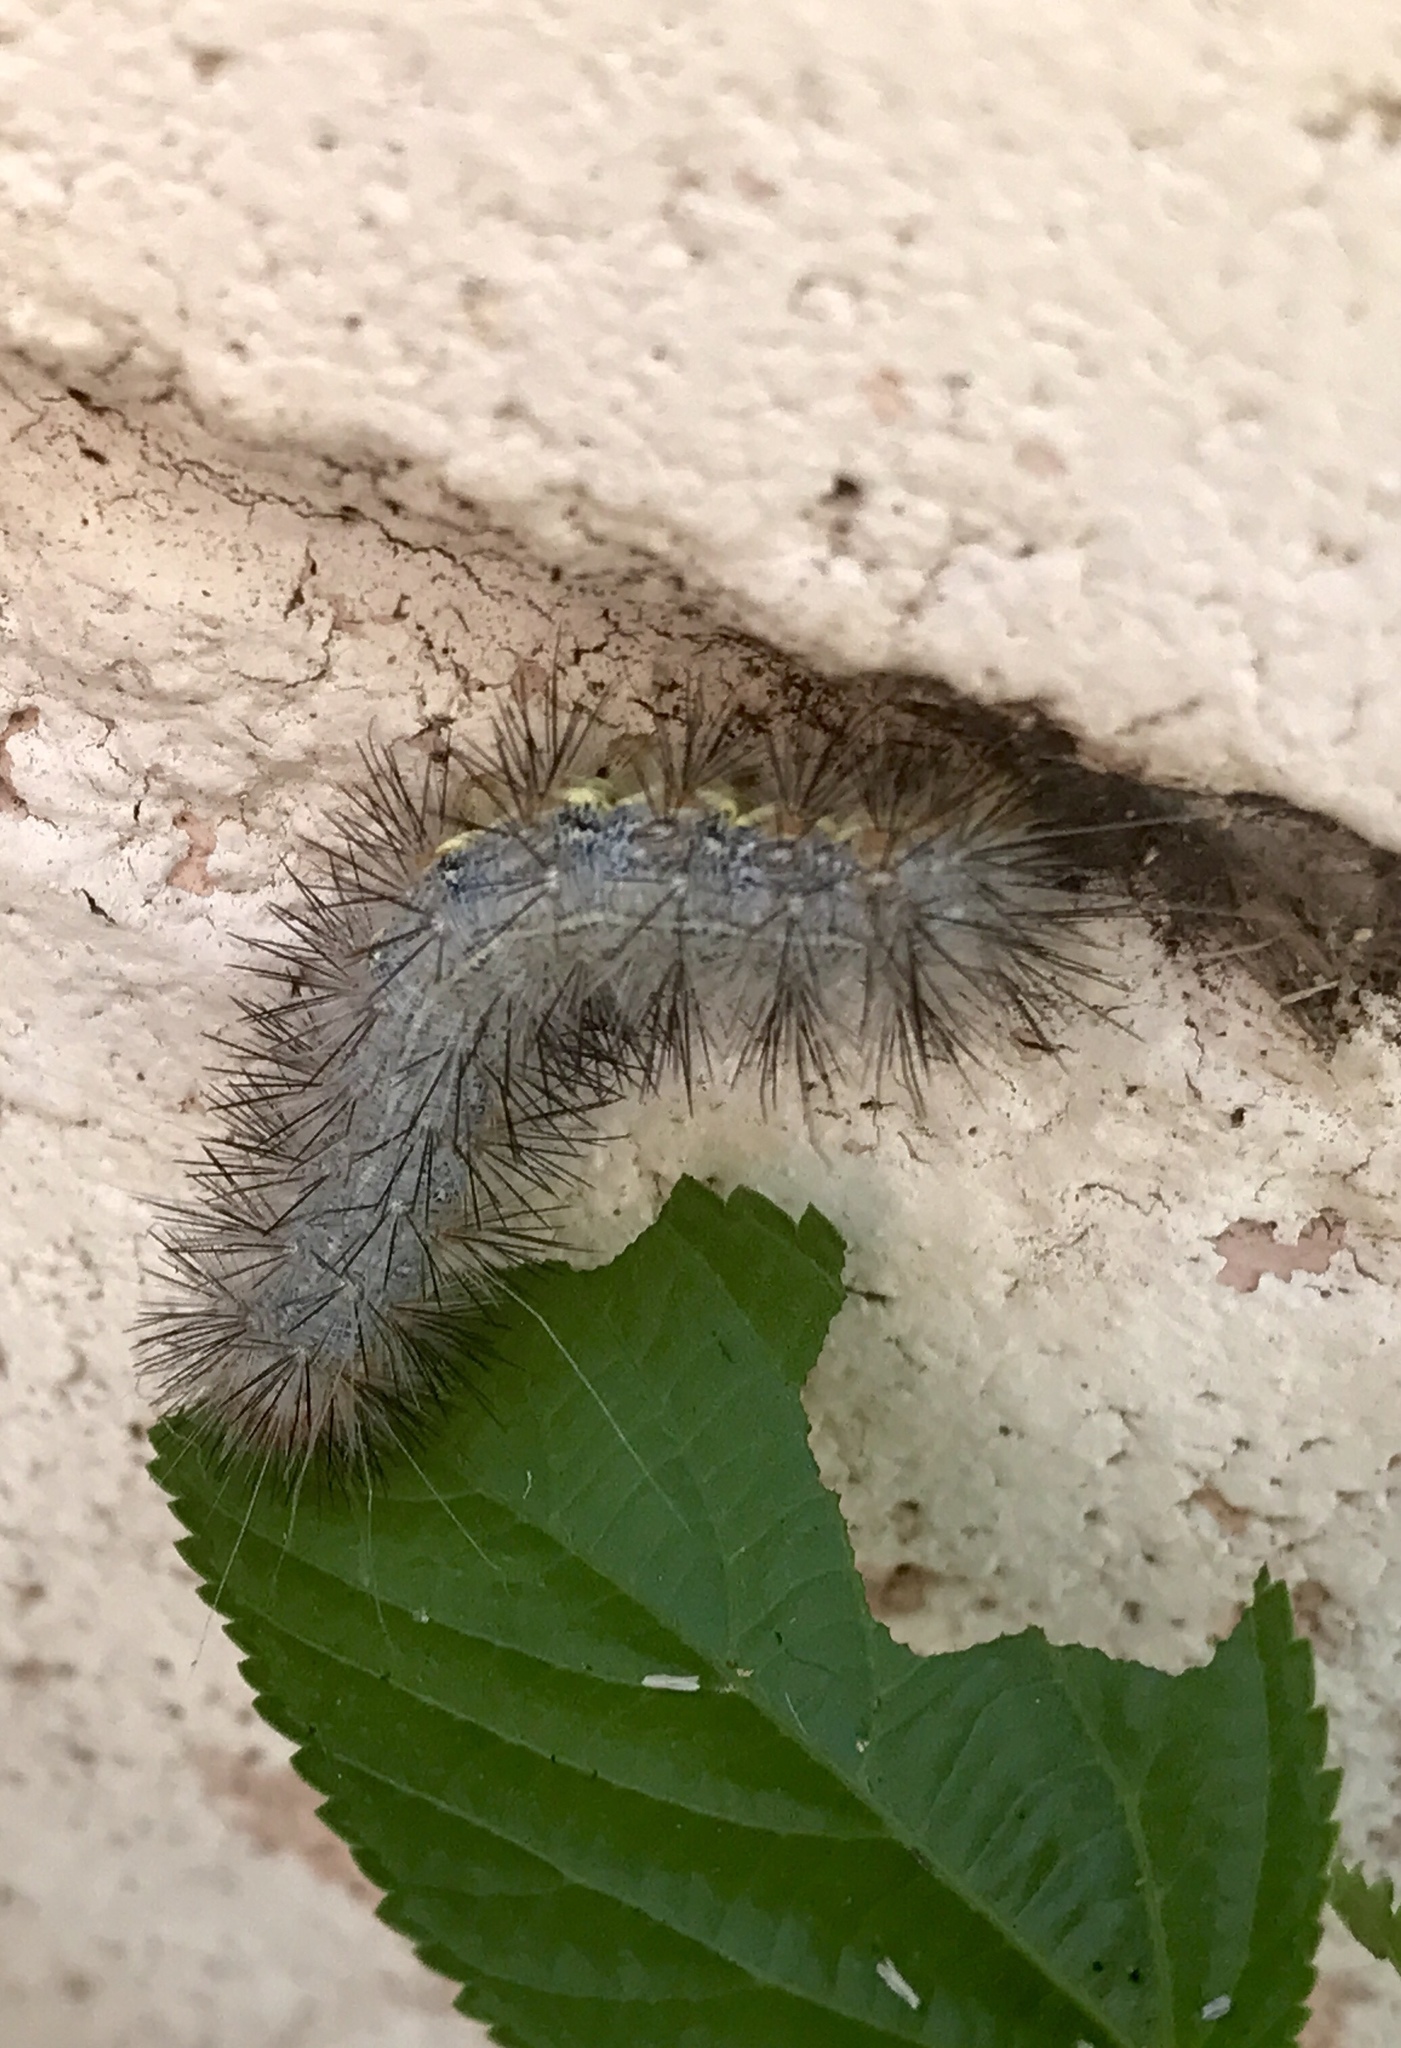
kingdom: Animalia
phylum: Arthropoda
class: Insecta
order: Lepidoptera
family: Erebidae
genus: Hypercompe
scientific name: Hypercompe suffusa
